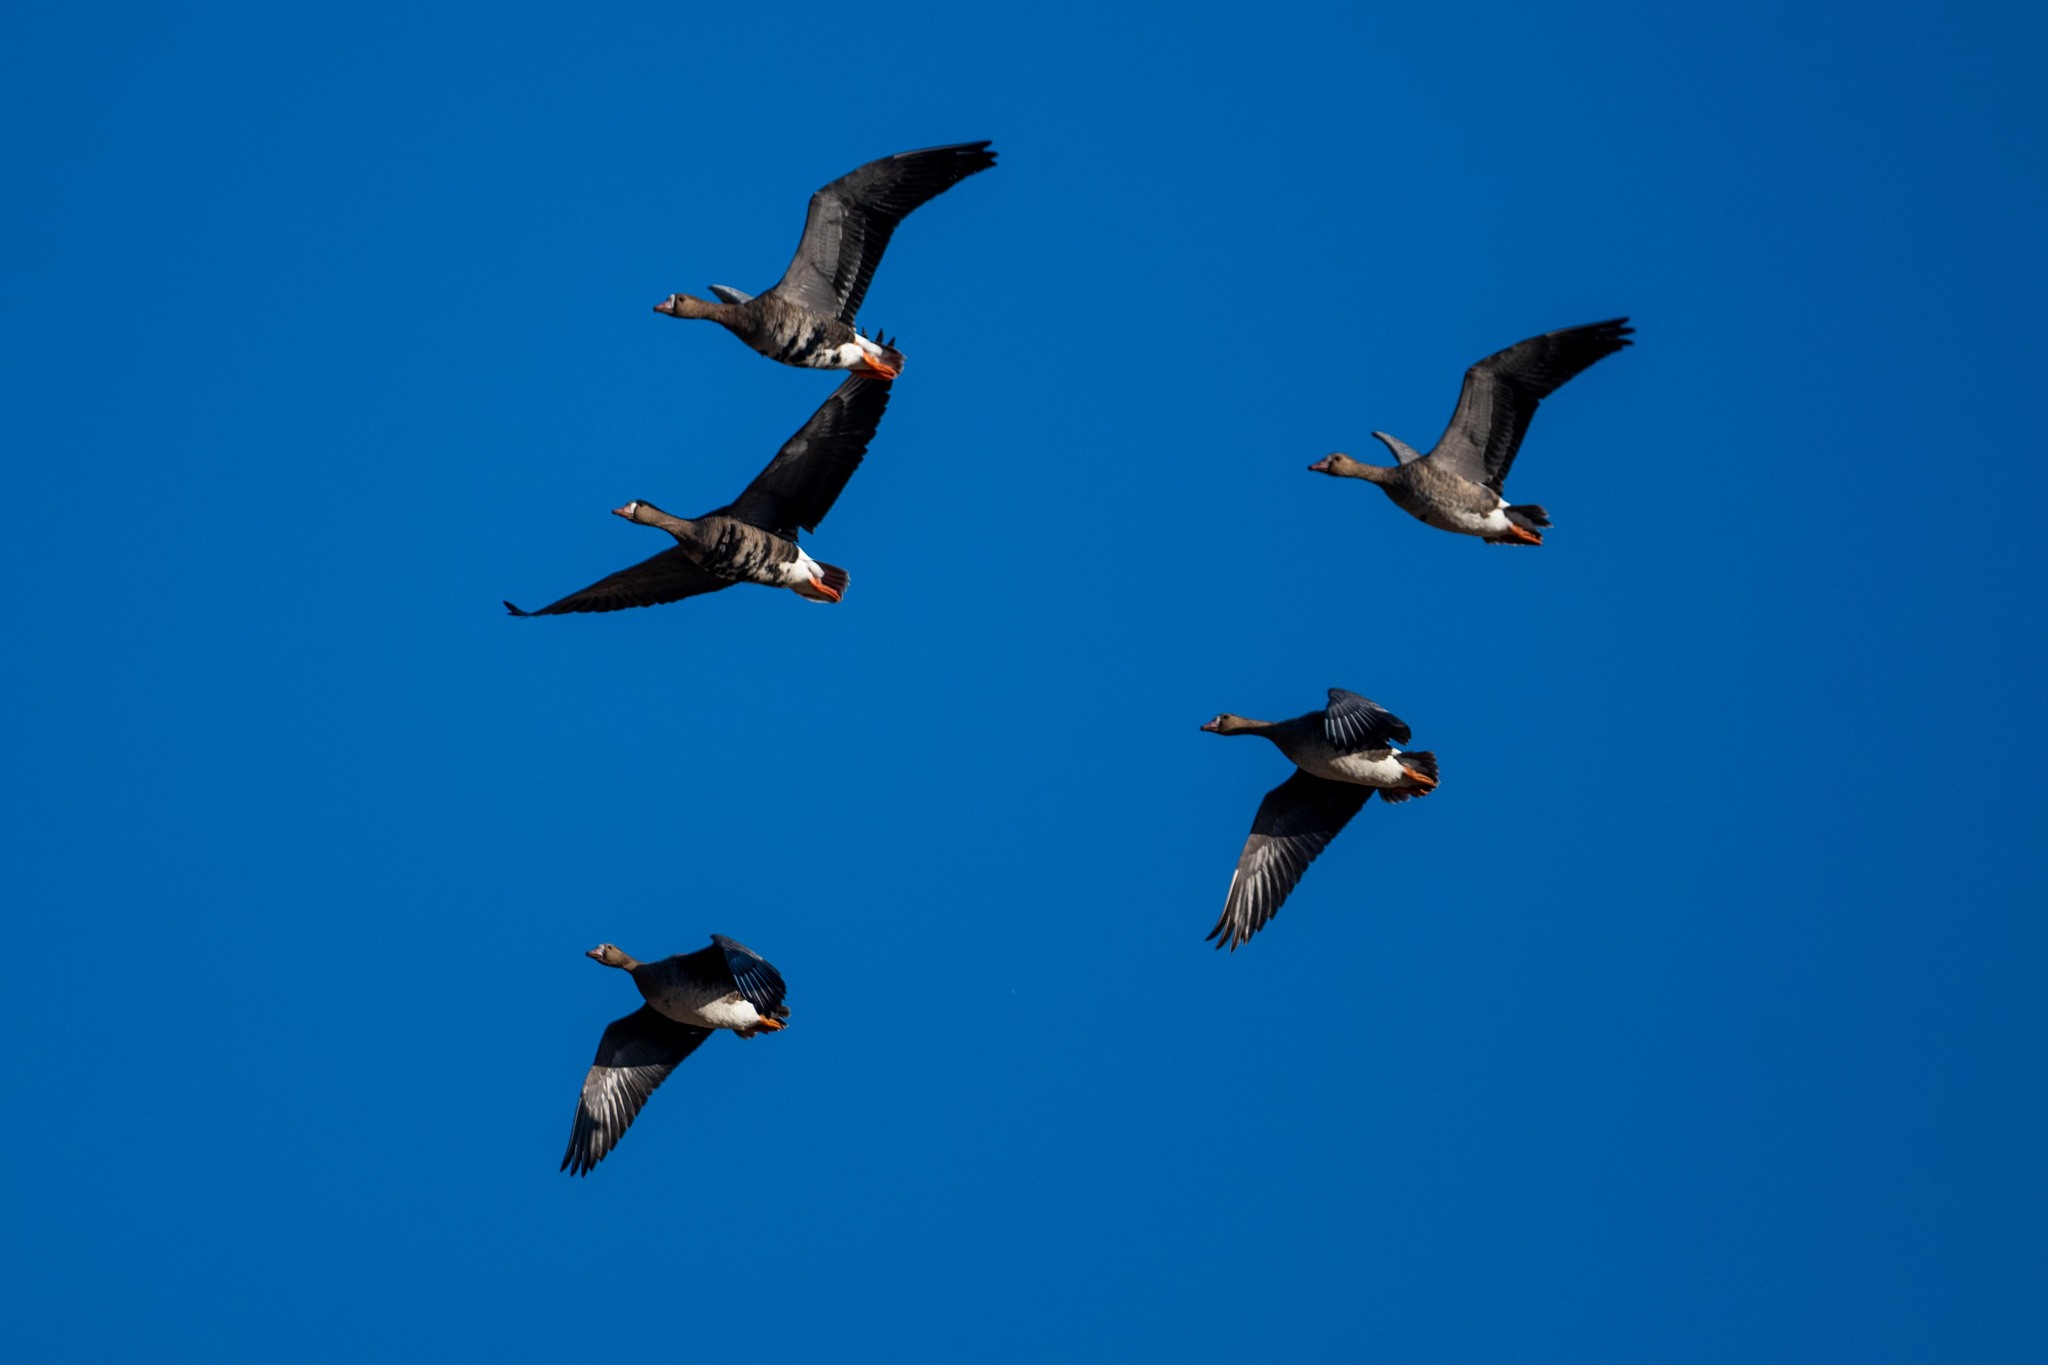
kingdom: Animalia
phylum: Chordata
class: Aves
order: Anseriformes
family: Anatidae
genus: Anser
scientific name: Anser albifrons
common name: Greater white-fronted goose
